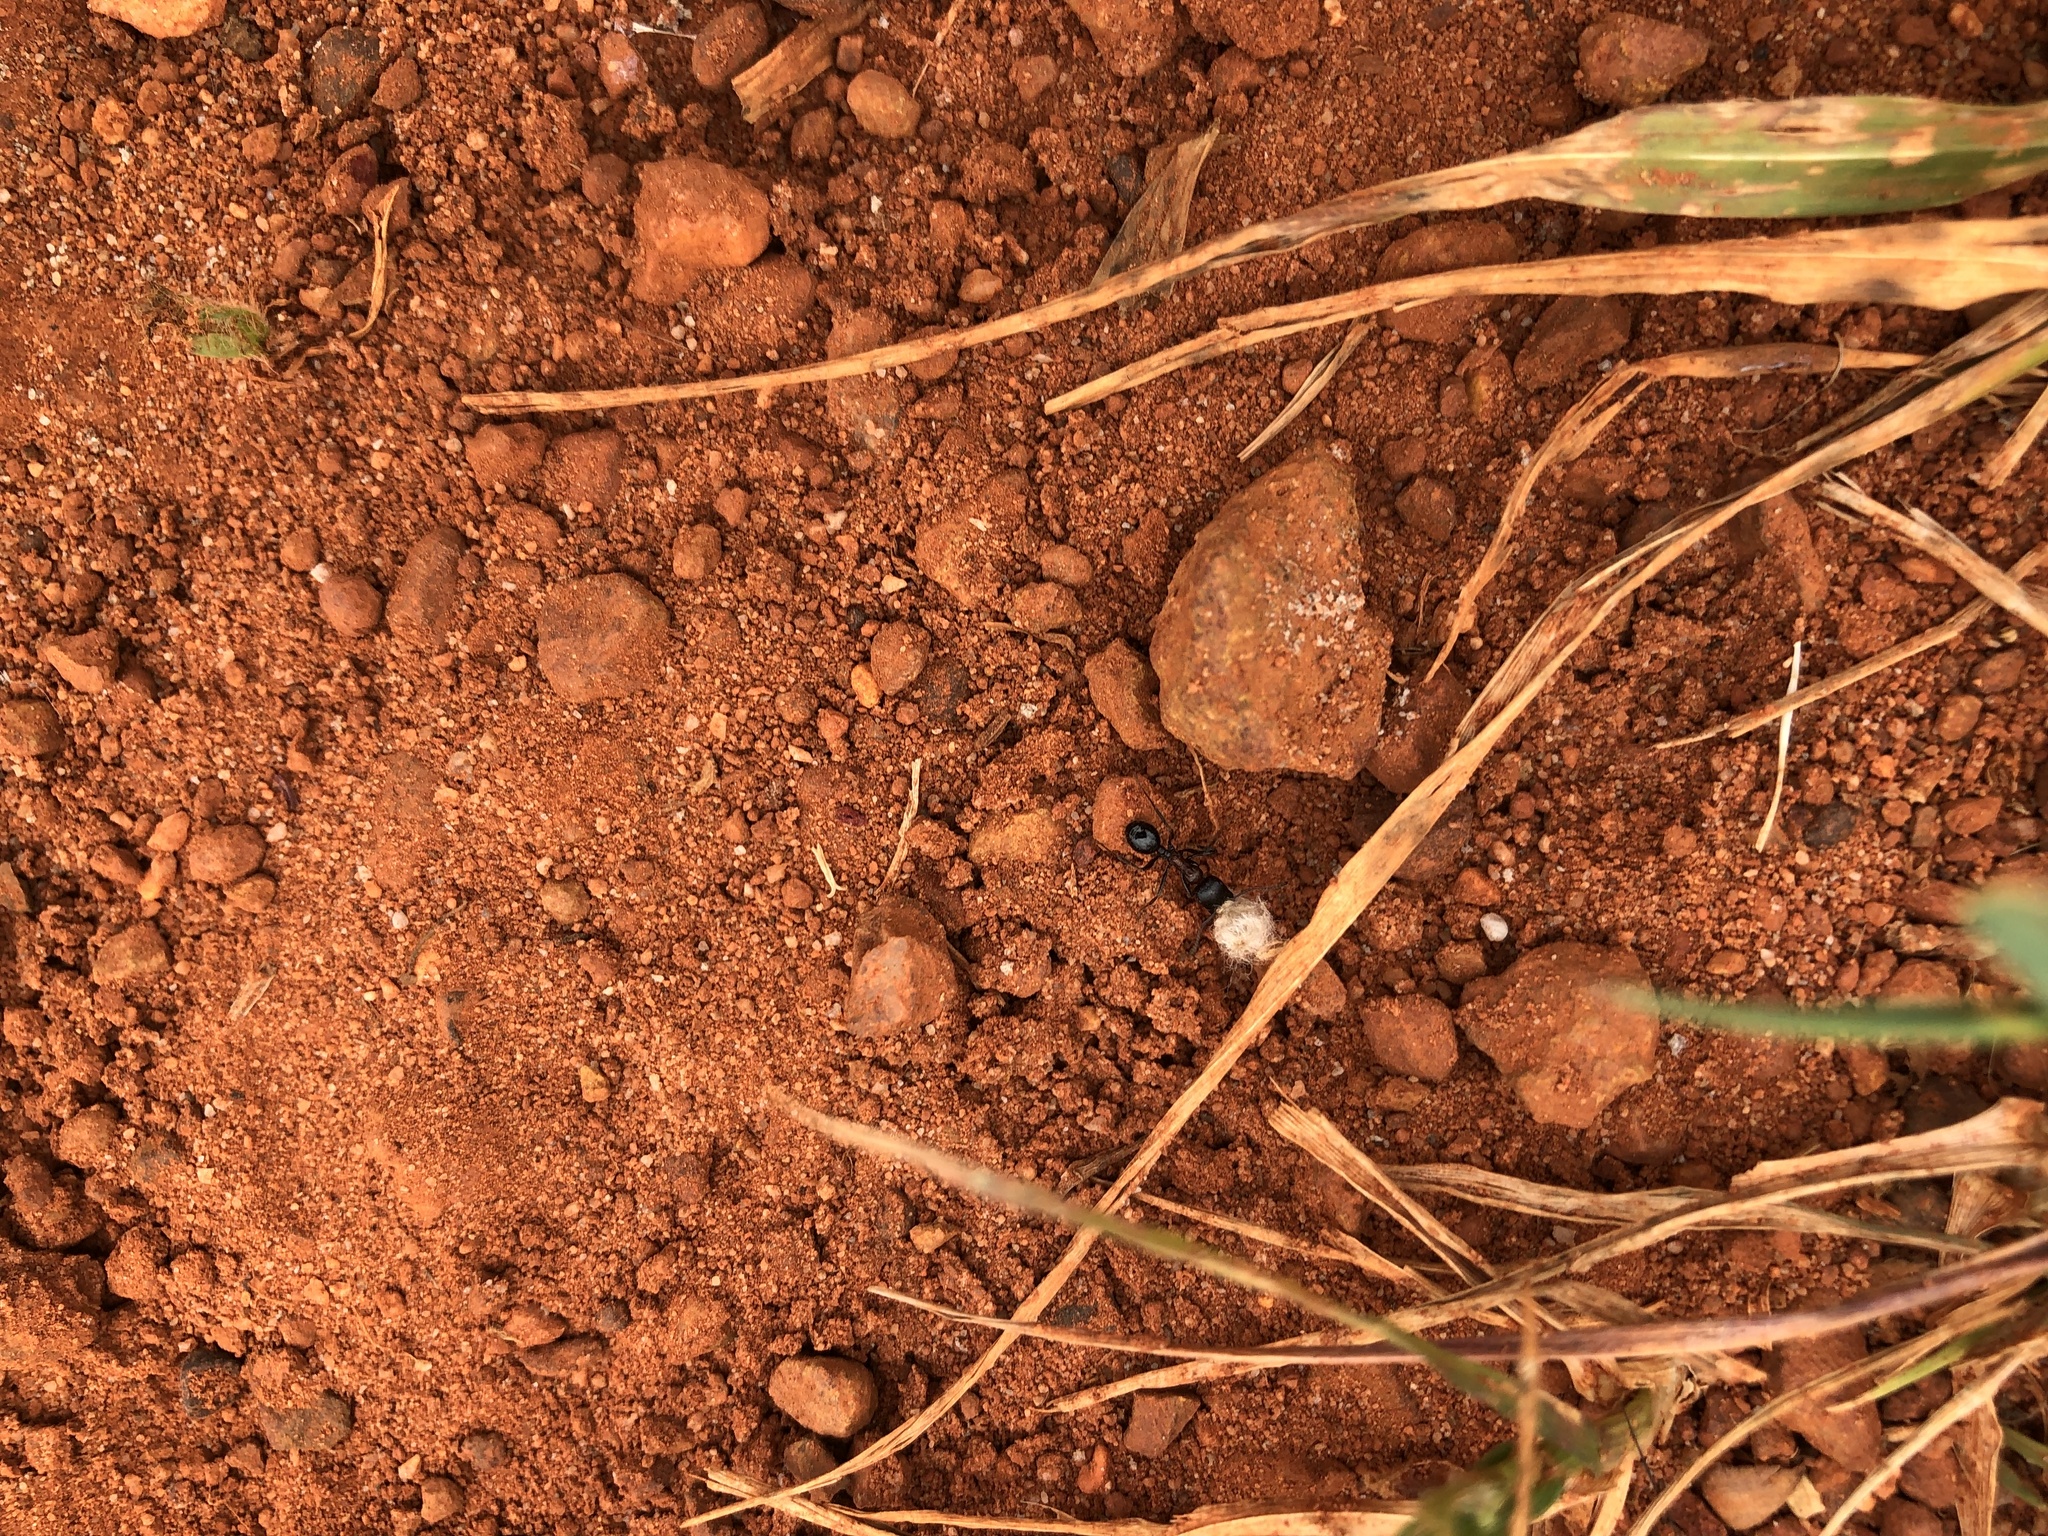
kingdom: Animalia
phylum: Arthropoda
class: Insecta
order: Hymenoptera
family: Formicidae
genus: Messor
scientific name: Messor capensis
